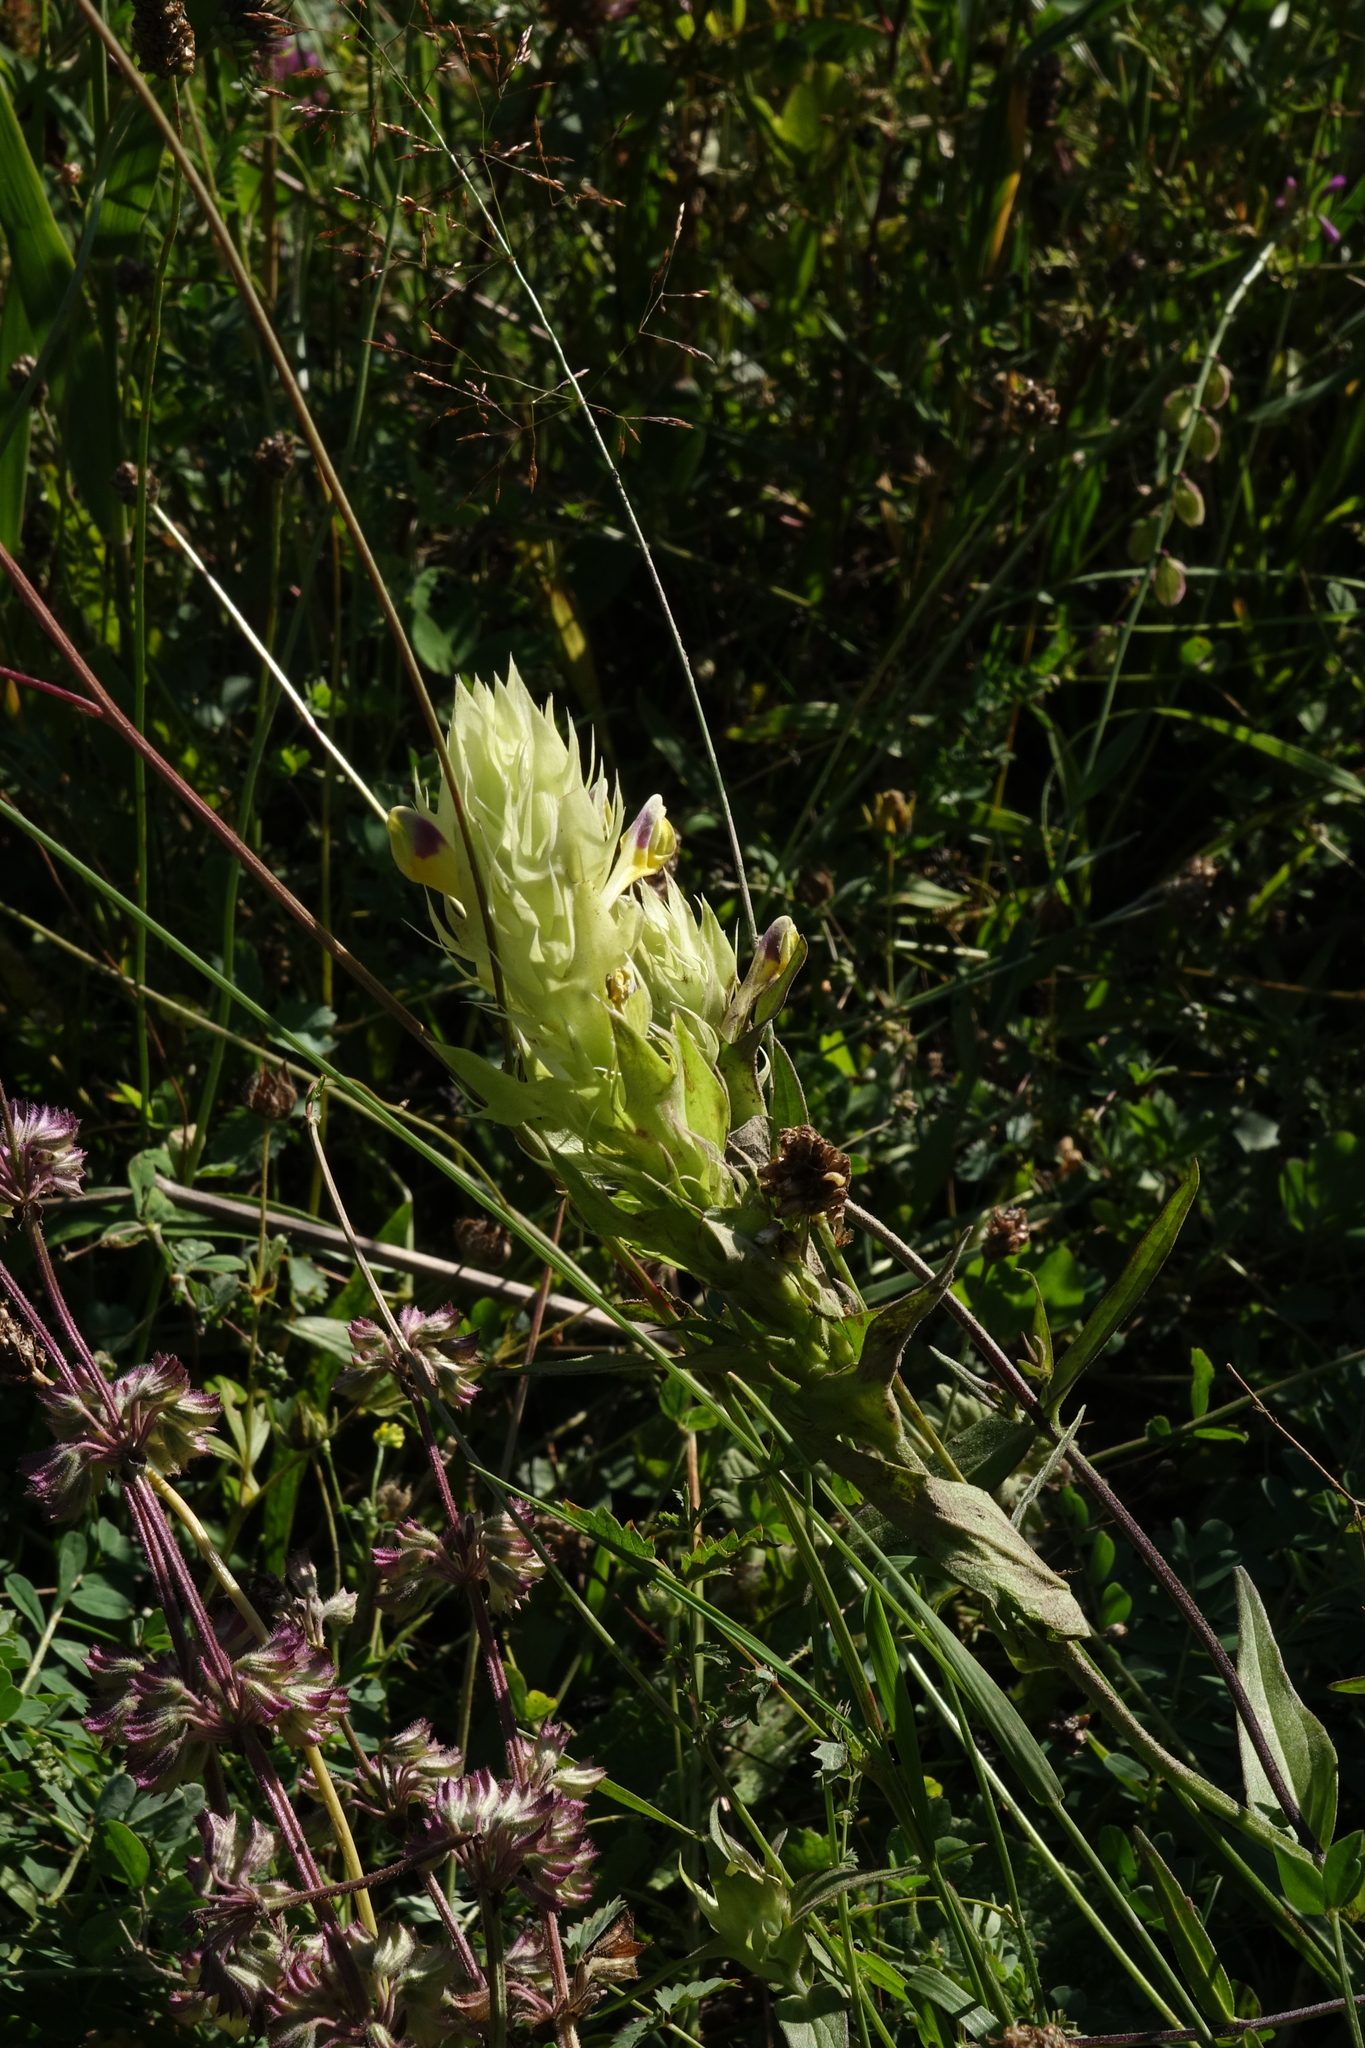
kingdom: Plantae
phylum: Tracheophyta
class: Magnoliopsida
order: Lamiales
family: Orobanchaceae
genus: Melampyrum
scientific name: Melampyrum arvense
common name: Field cow-wheat
